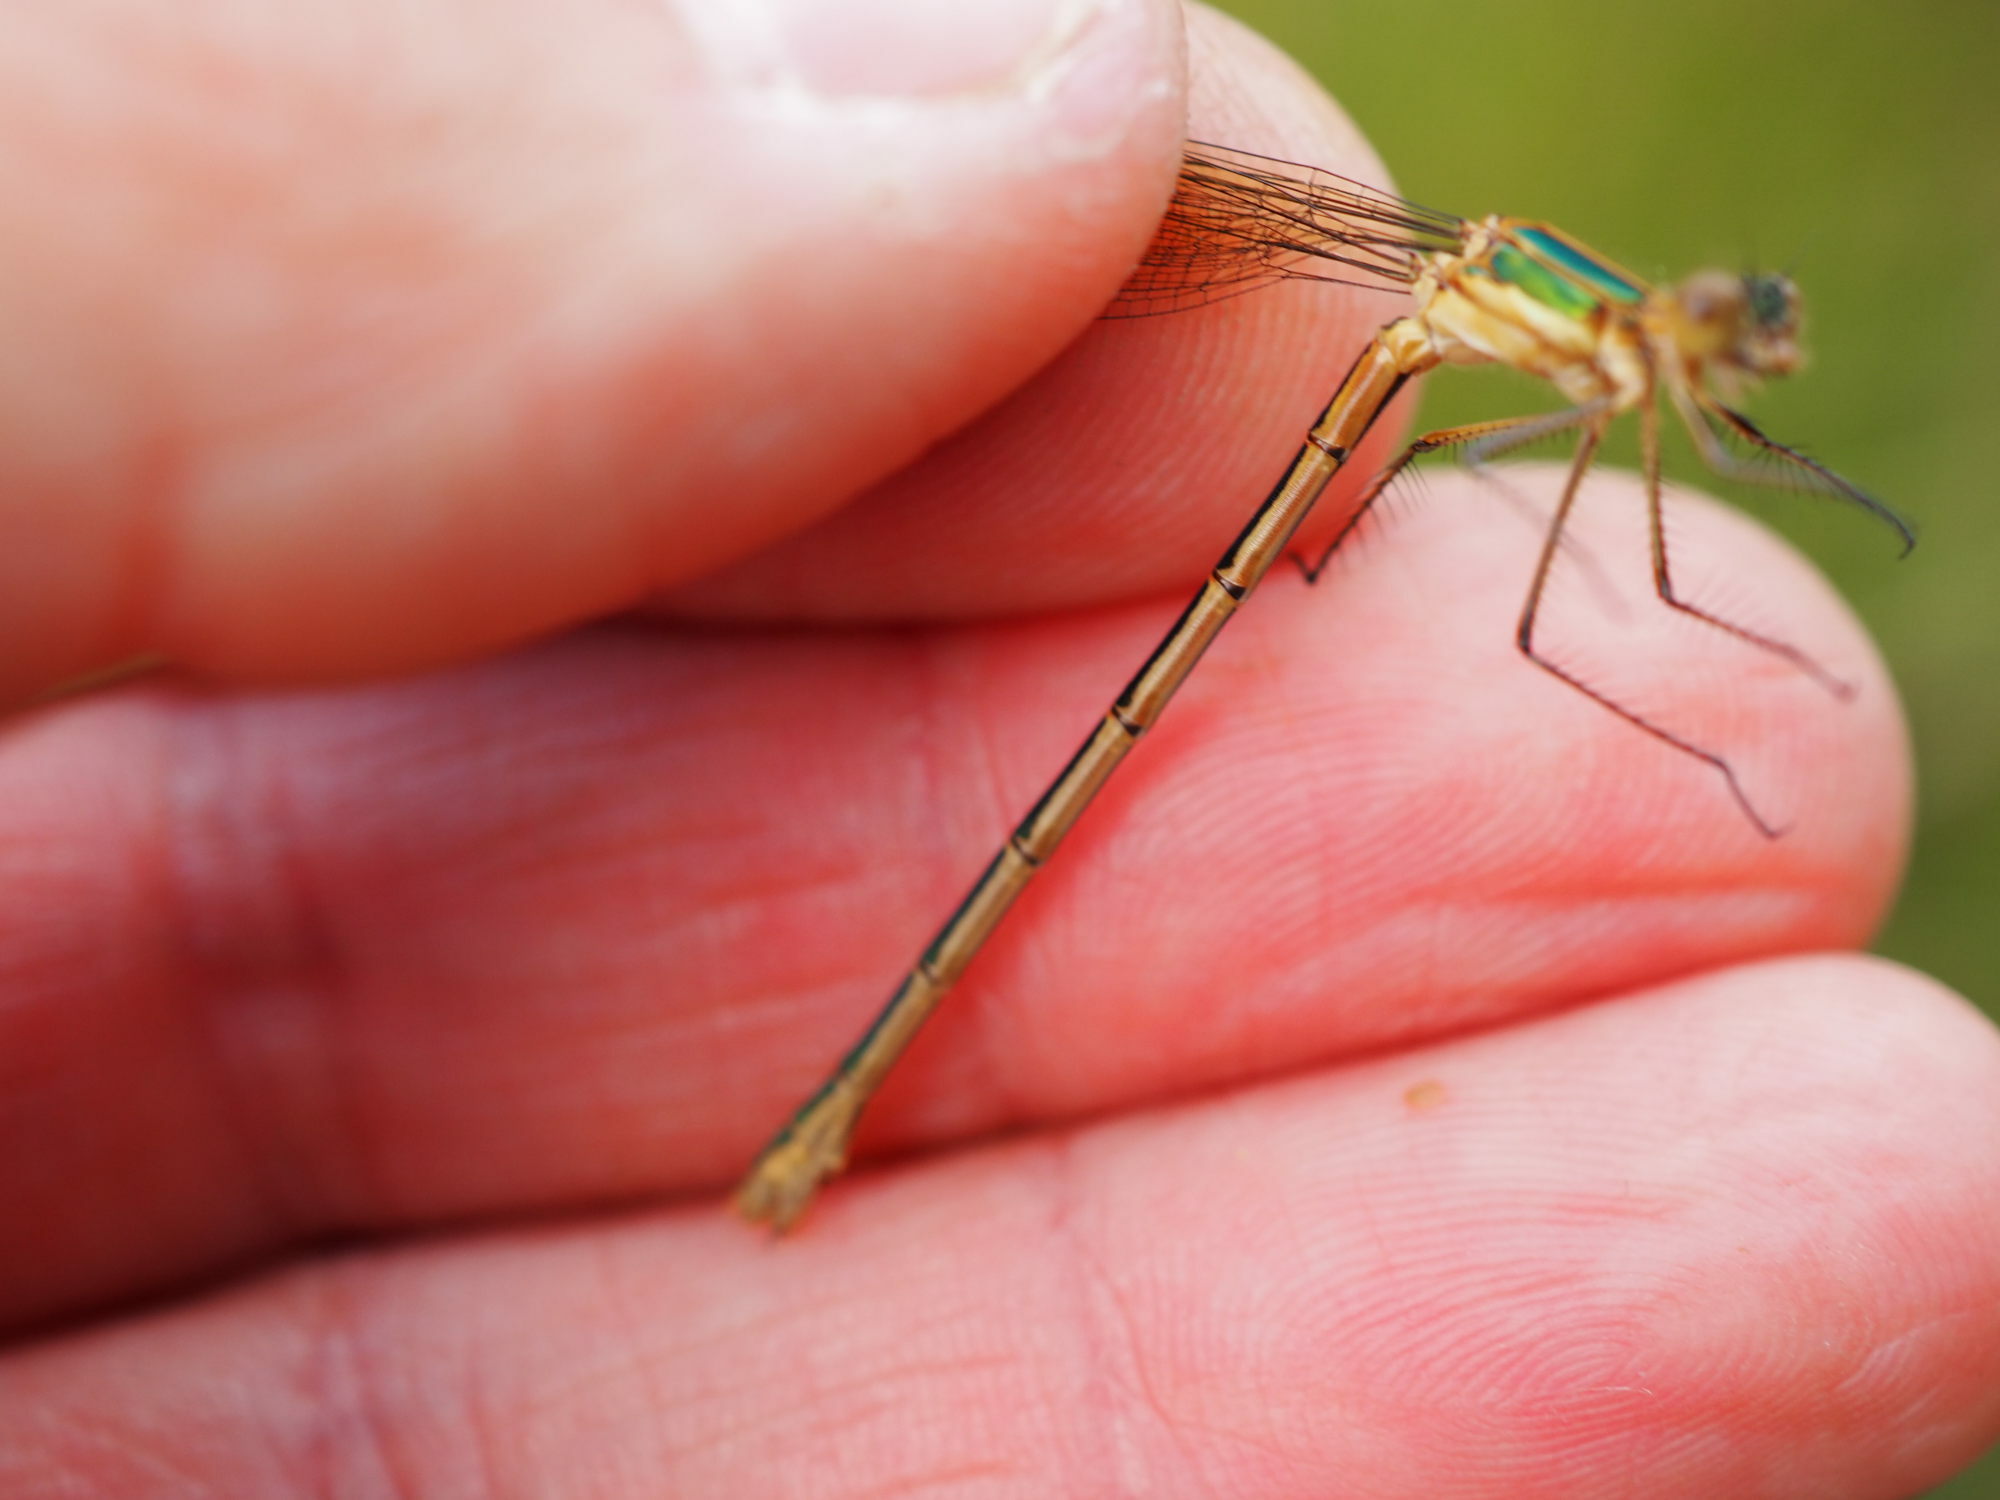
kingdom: Animalia
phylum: Arthropoda
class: Insecta
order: Odonata
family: Lestidae
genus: Lestes
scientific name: Lestes sponsa
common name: Common spreadwing
